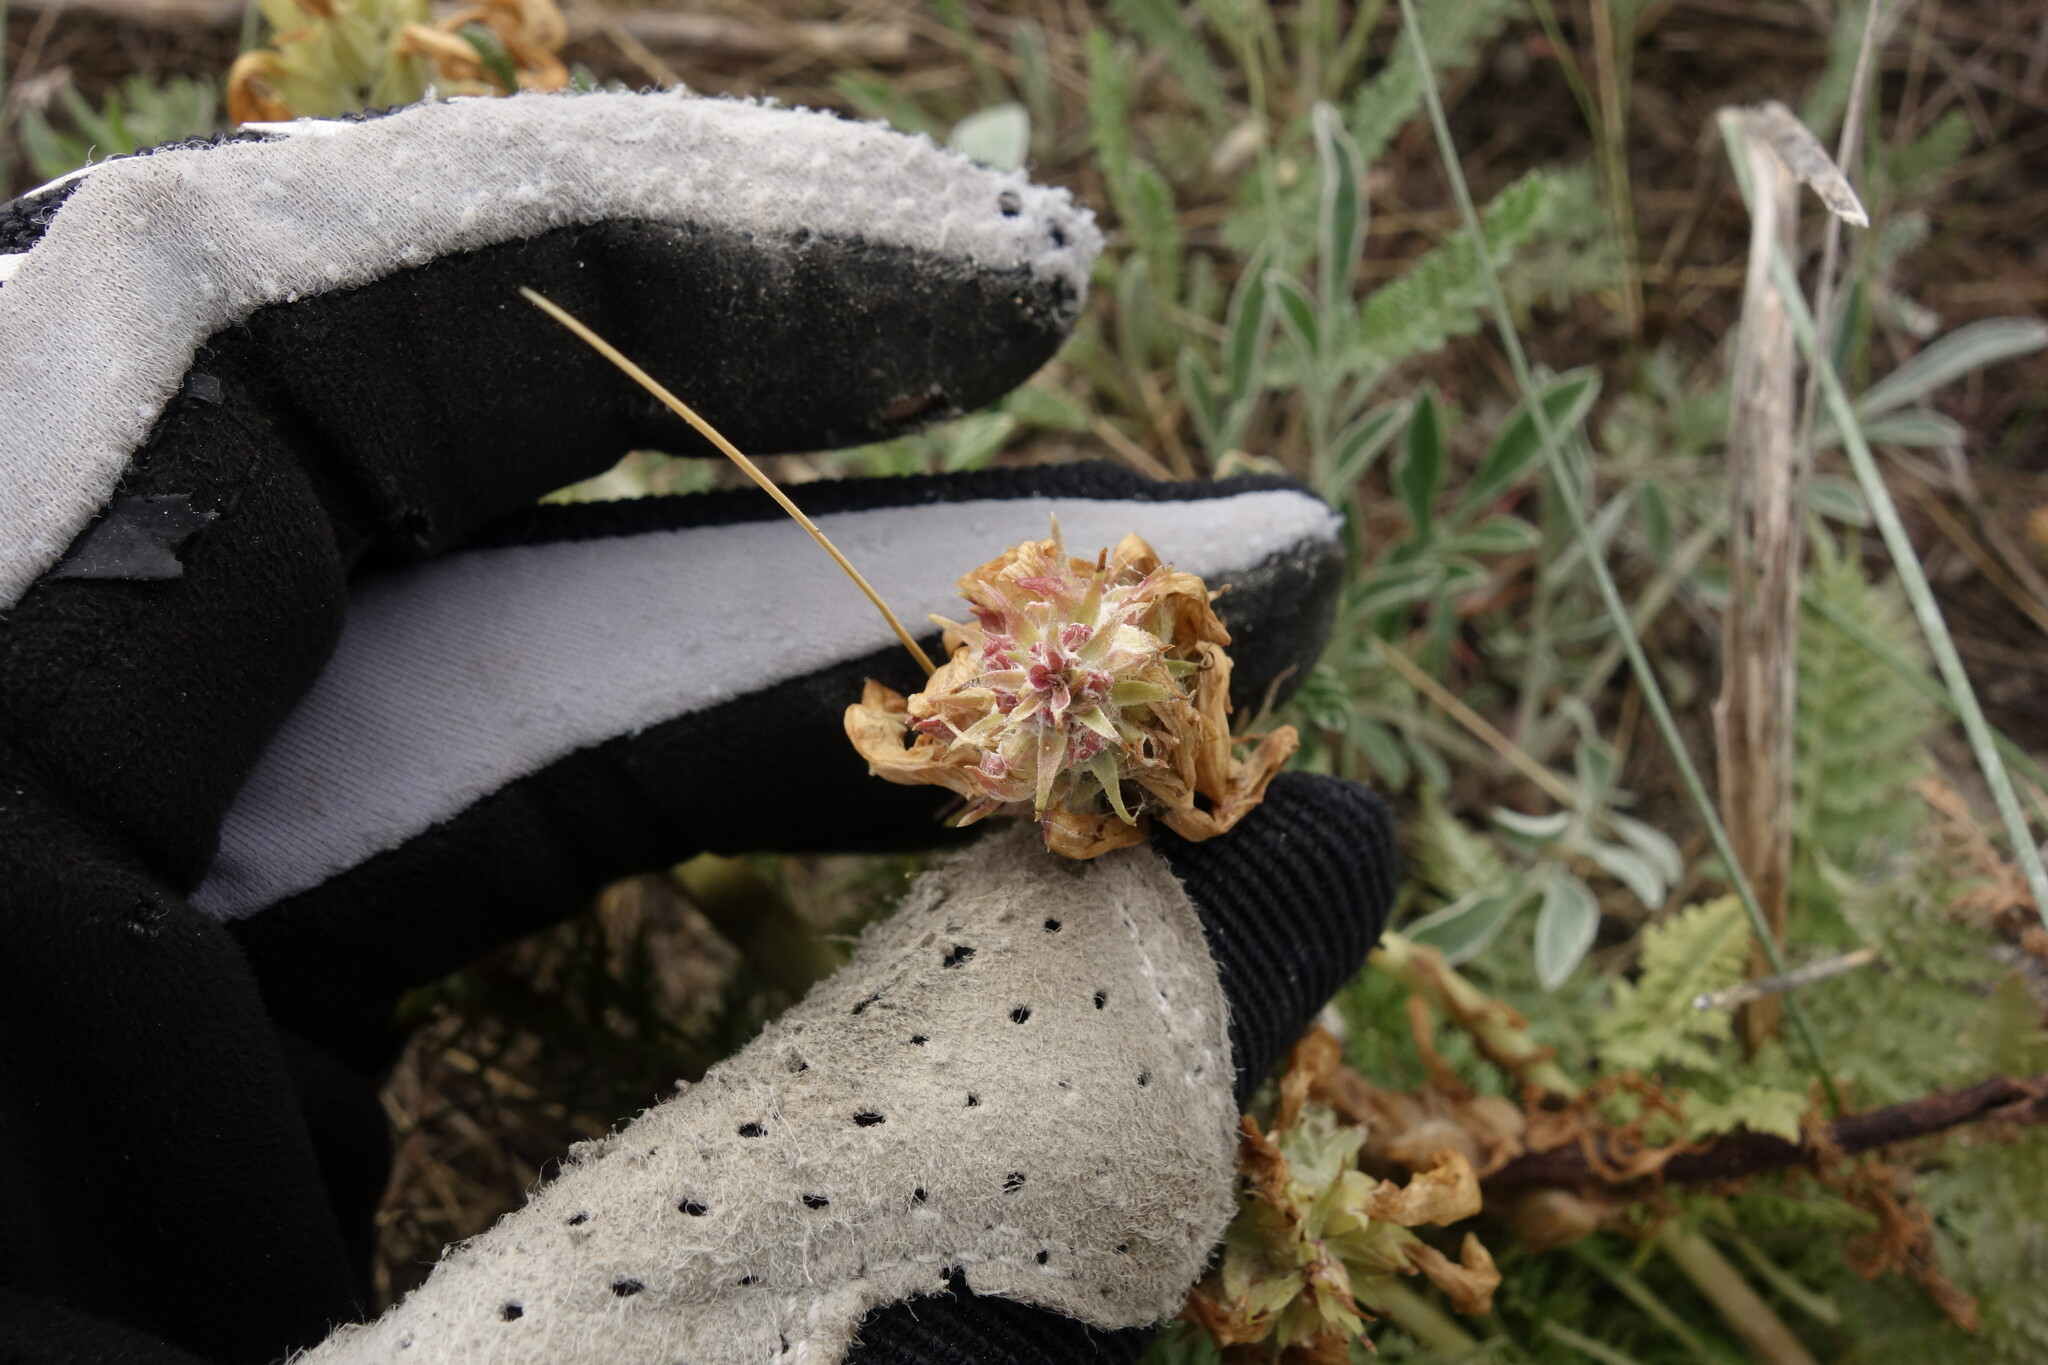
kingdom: Plantae
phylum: Tracheophyta
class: Magnoliopsida
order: Lamiales
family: Orobanchaceae
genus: Pedicularis
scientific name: Pedicularis dasystachys
